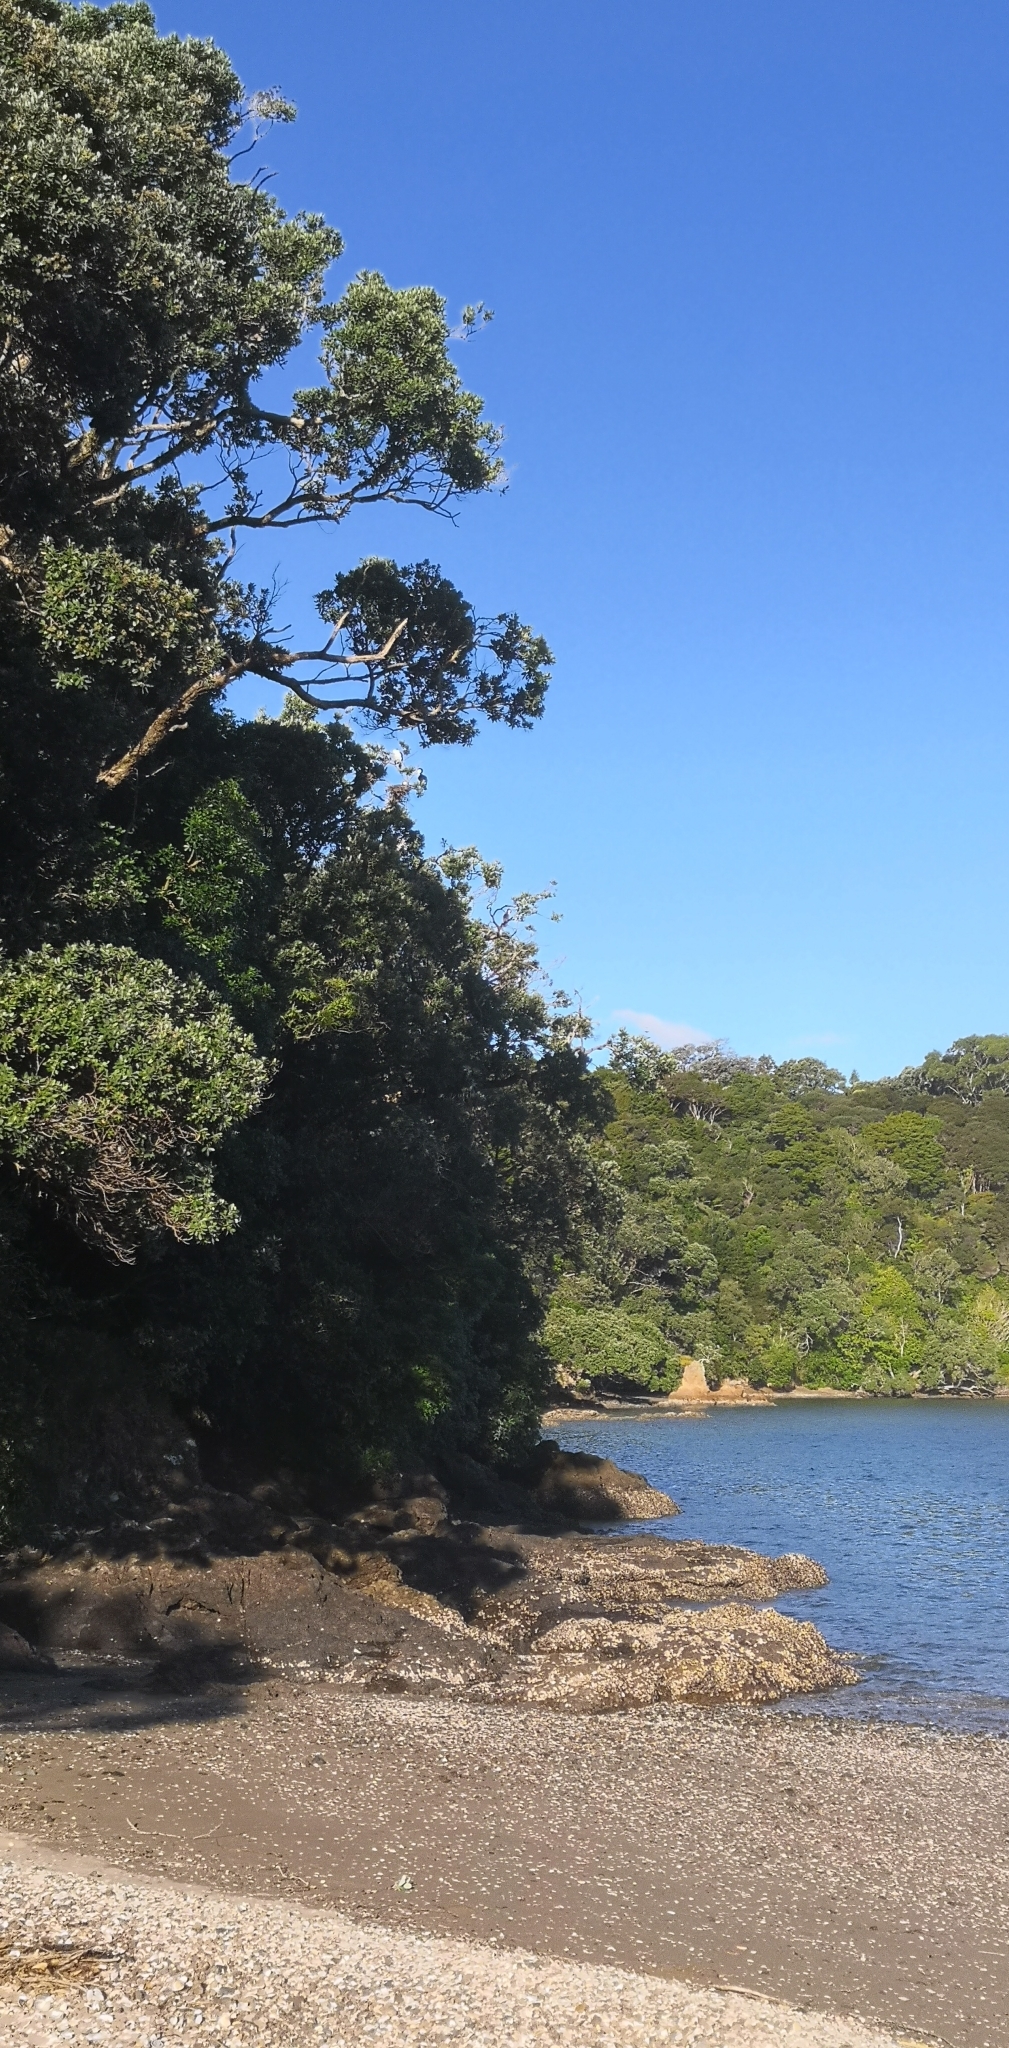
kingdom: Animalia
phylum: Chordata
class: Aves
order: Suliformes
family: Phalacrocoracidae
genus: Microcarbo
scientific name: Microcarbo melanoleucos
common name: Little pied cormorant
